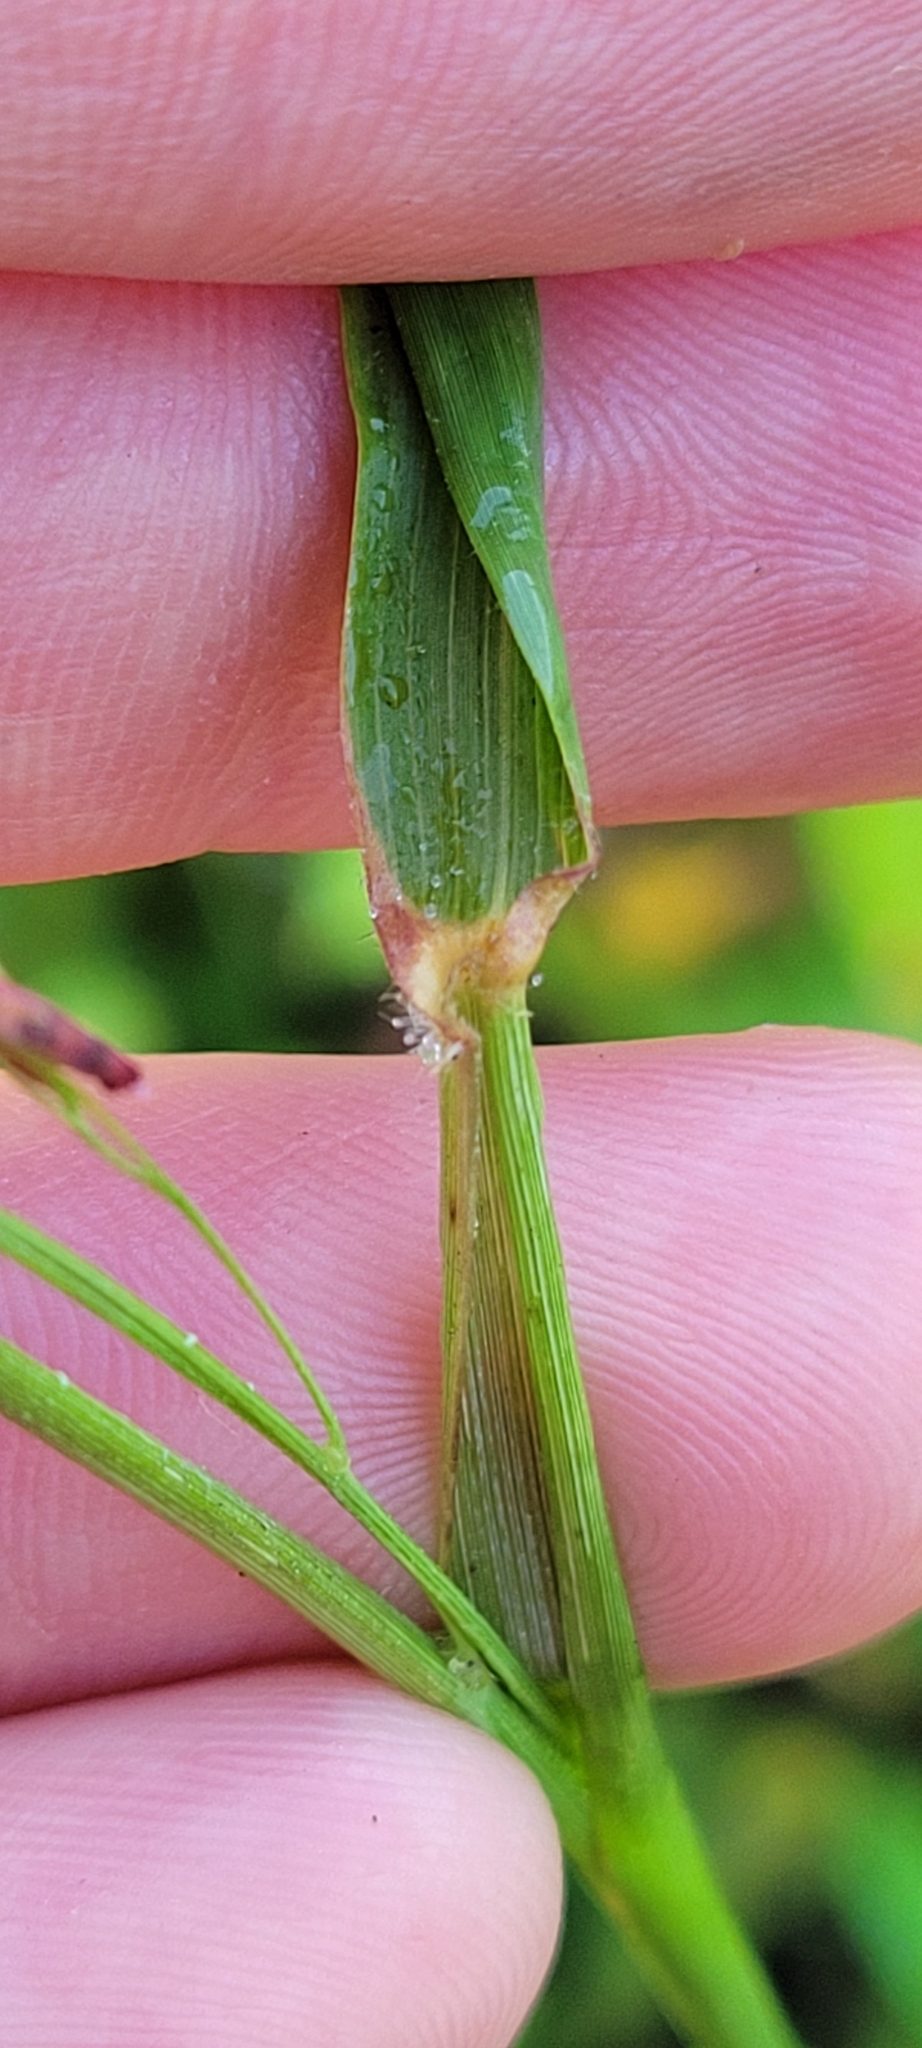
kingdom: Plantae
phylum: Tracheophyta
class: Liliopsida
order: Poales
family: Poaceae
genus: Tridens
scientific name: Tridens flavus
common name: Purpletop
